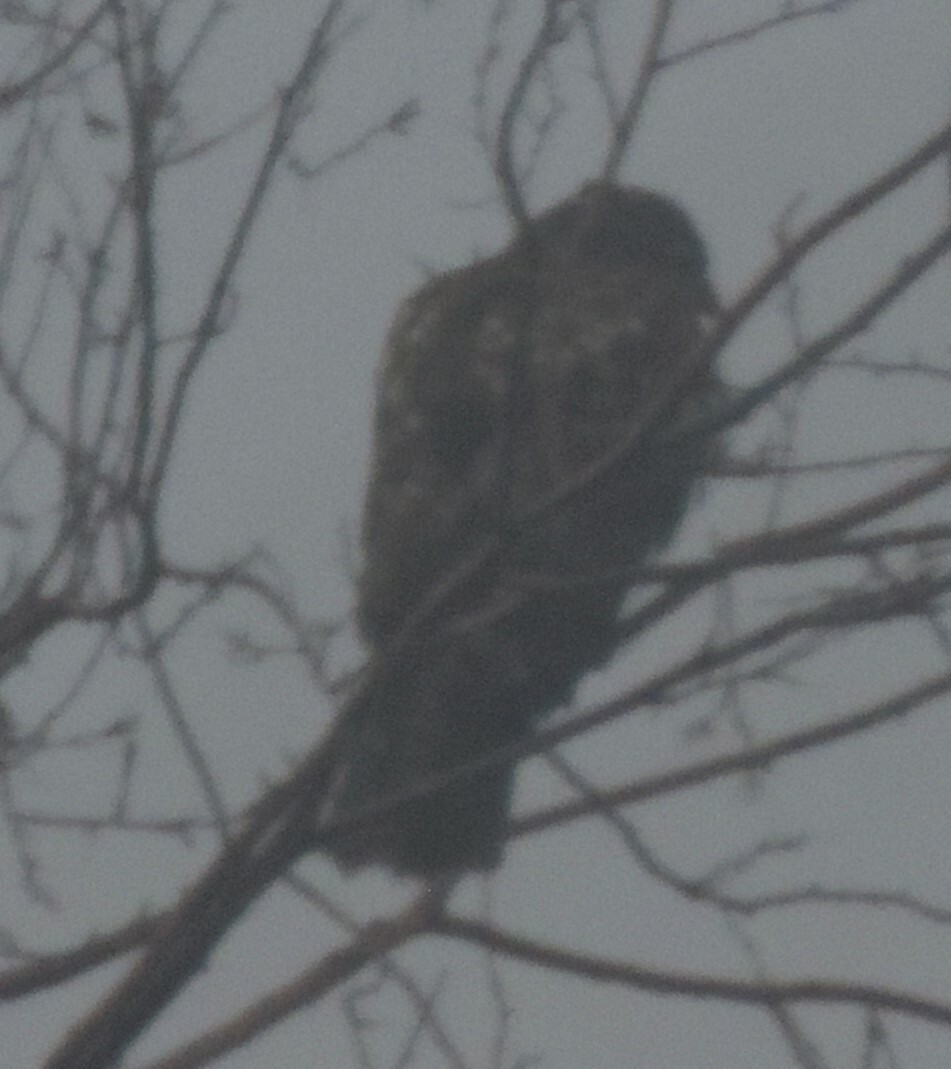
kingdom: Animalia
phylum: Chordata
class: Aves
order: Accipitriformes
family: Accipitridae
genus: Buteo
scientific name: Buteo jamaicensis
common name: Red-tailed hawk
